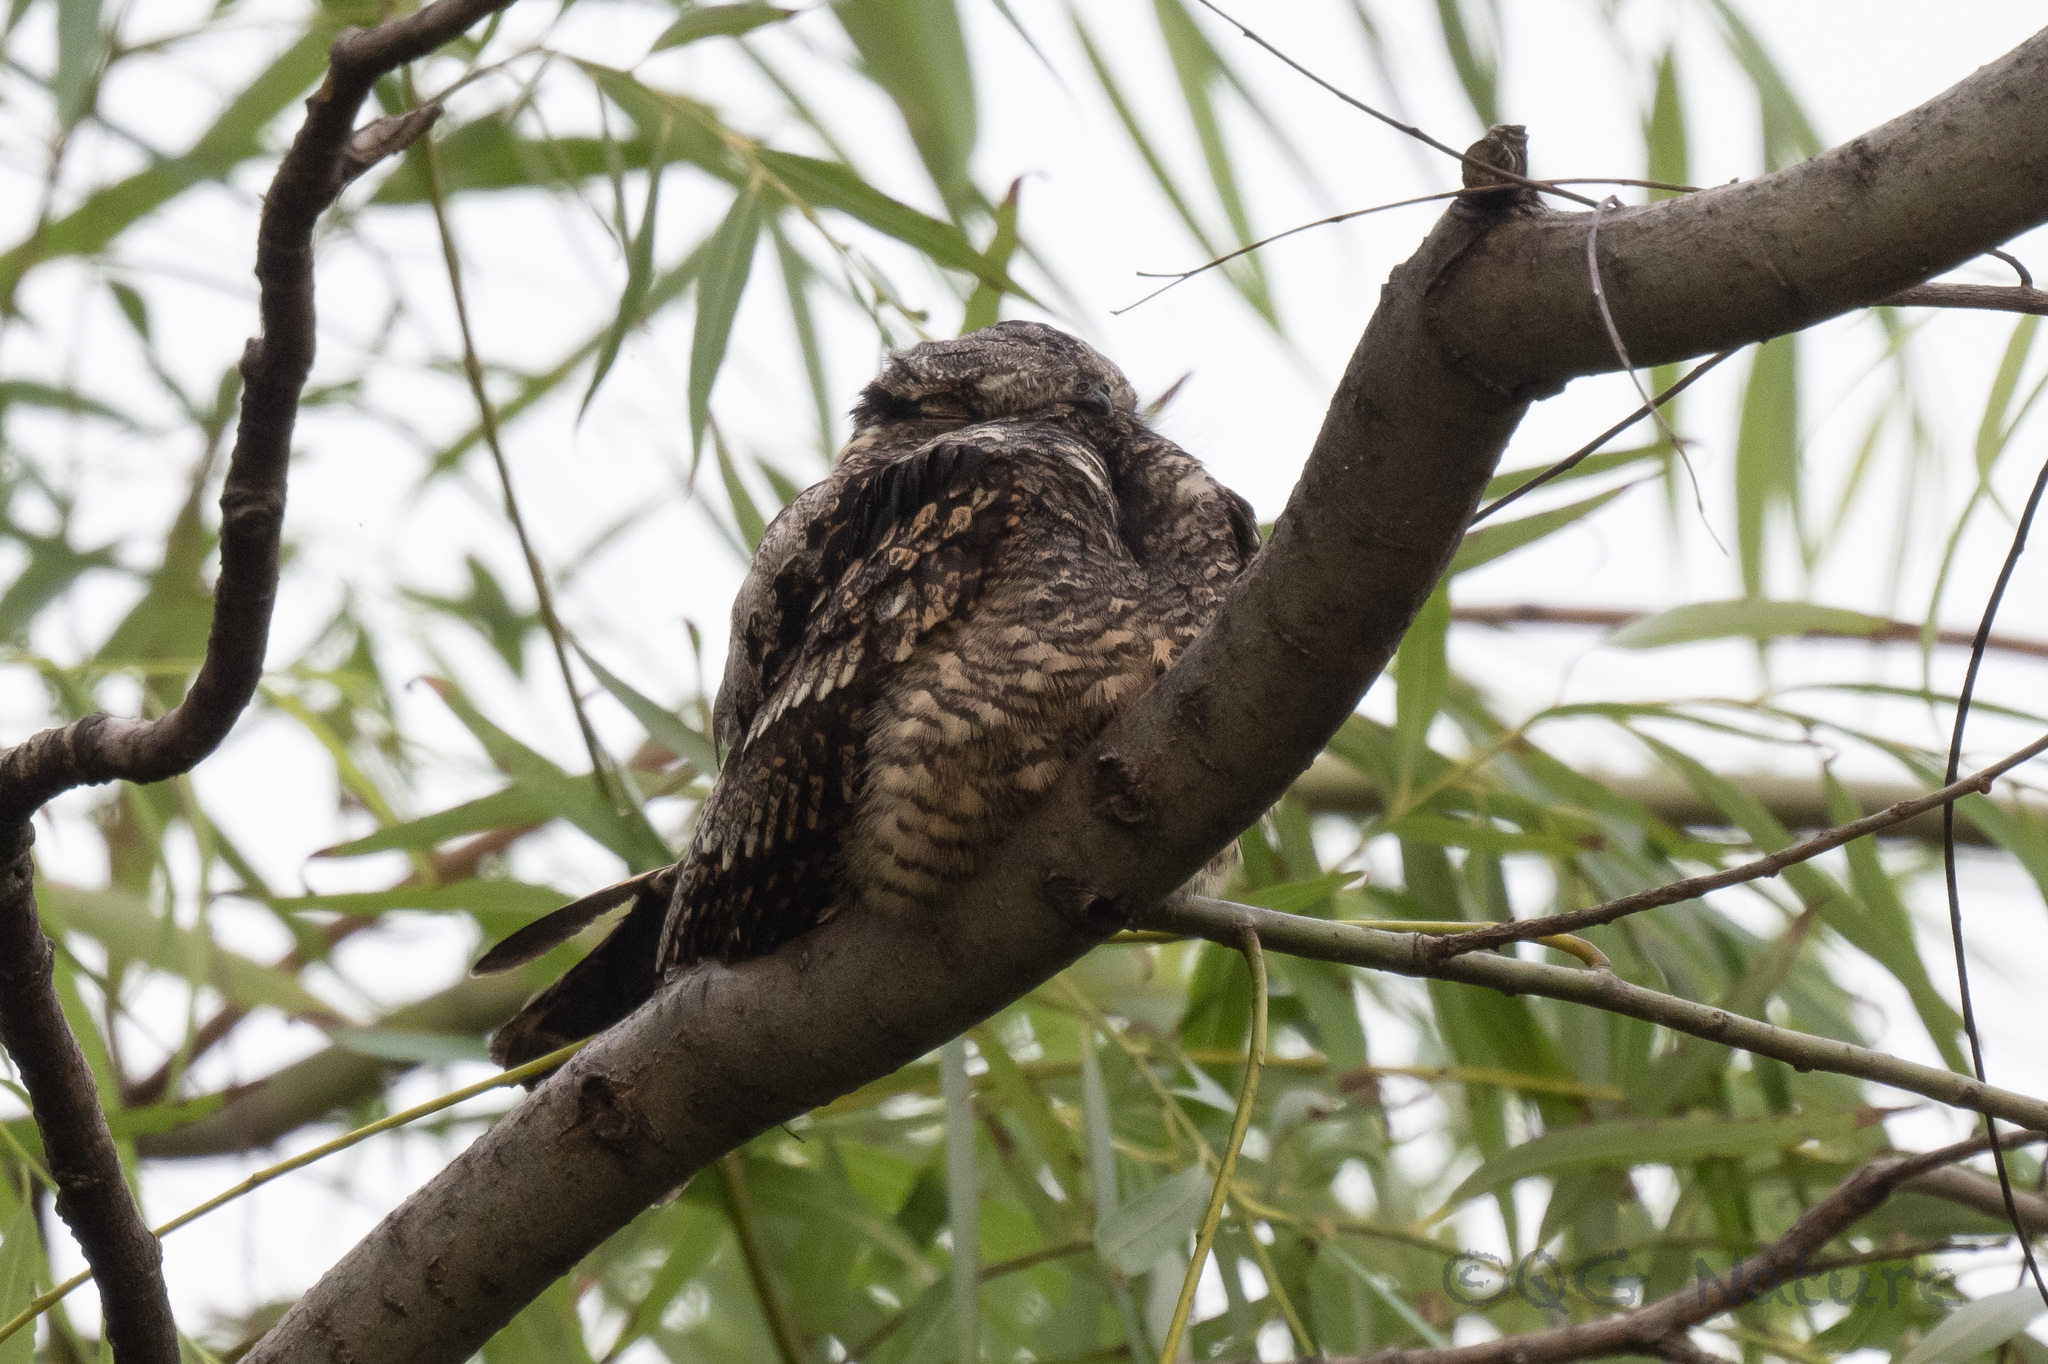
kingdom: Animalia
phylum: Chordata
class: Aves
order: Caprimulgiformes
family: Caprimulgidae
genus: Caprimulgus
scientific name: Caprimulgus jotaka
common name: Grey nightjar
